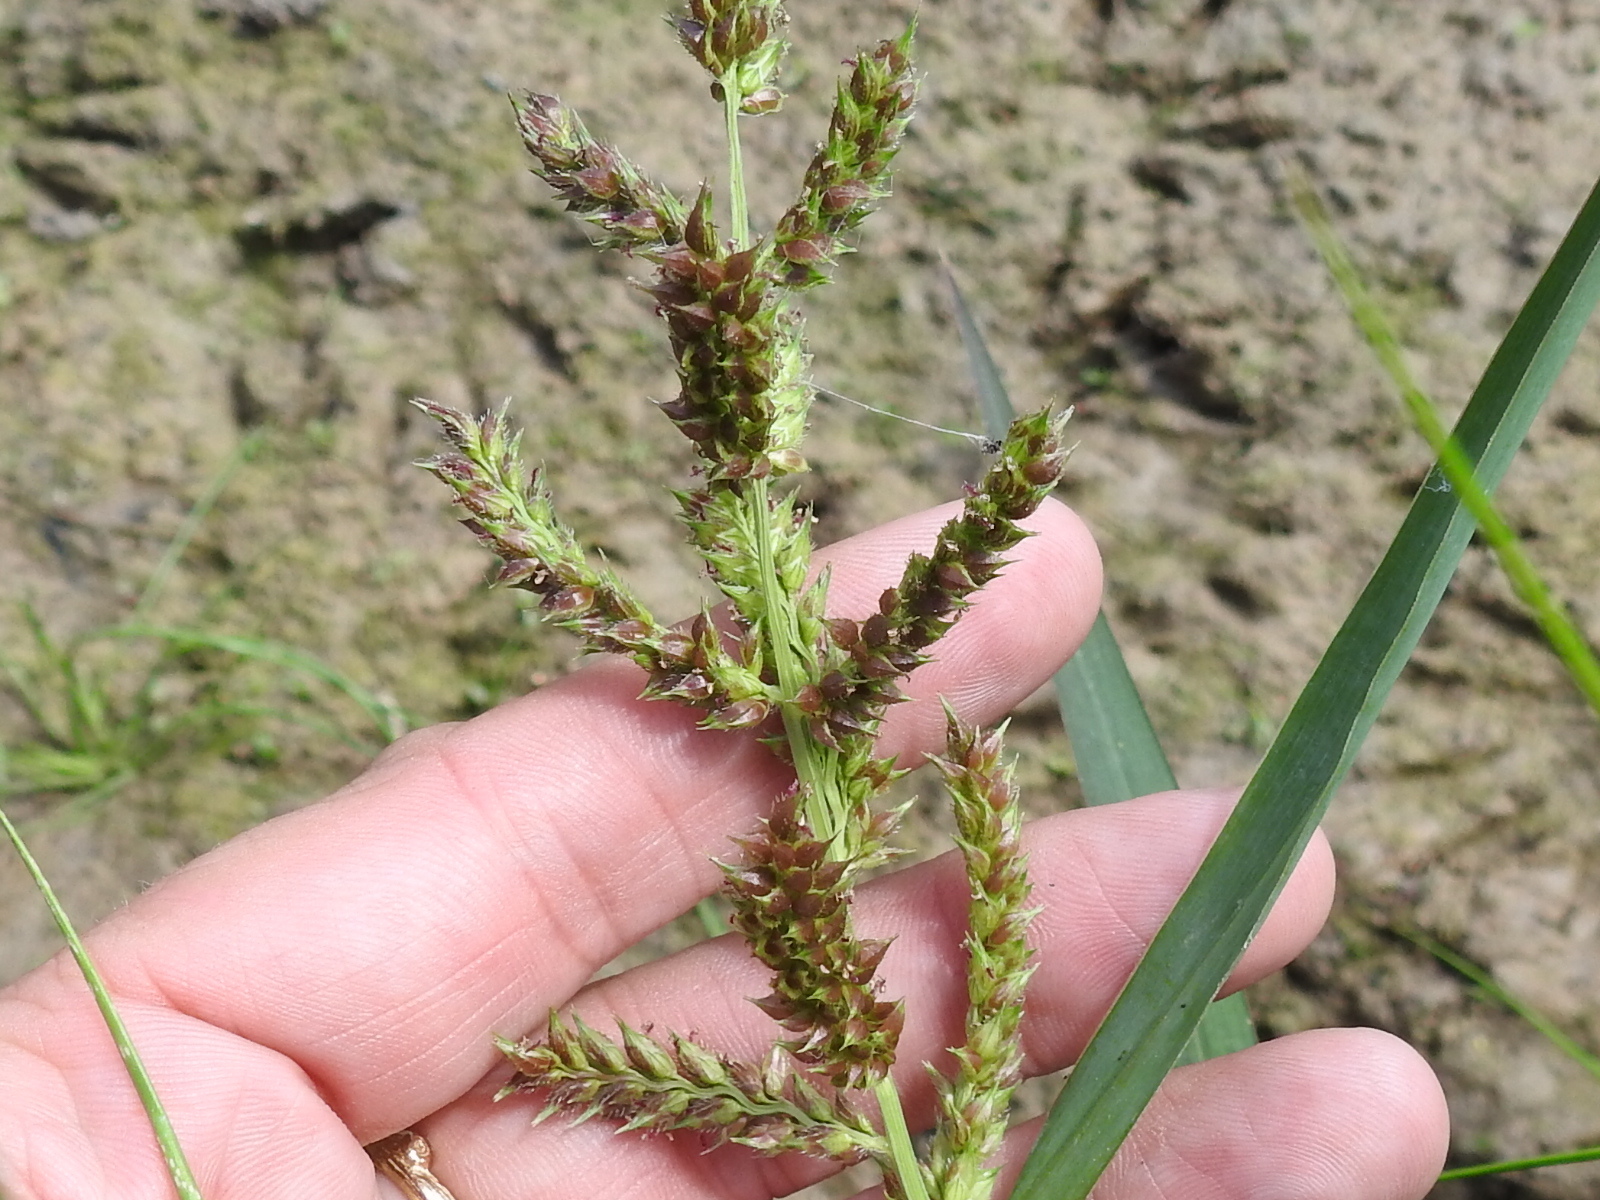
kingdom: Plantae
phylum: Tracheophyta
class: Liliopsida
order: Poales
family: Poaceae
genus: Echinochloa
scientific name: Echinochloa crus-galli
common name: Cockspur
